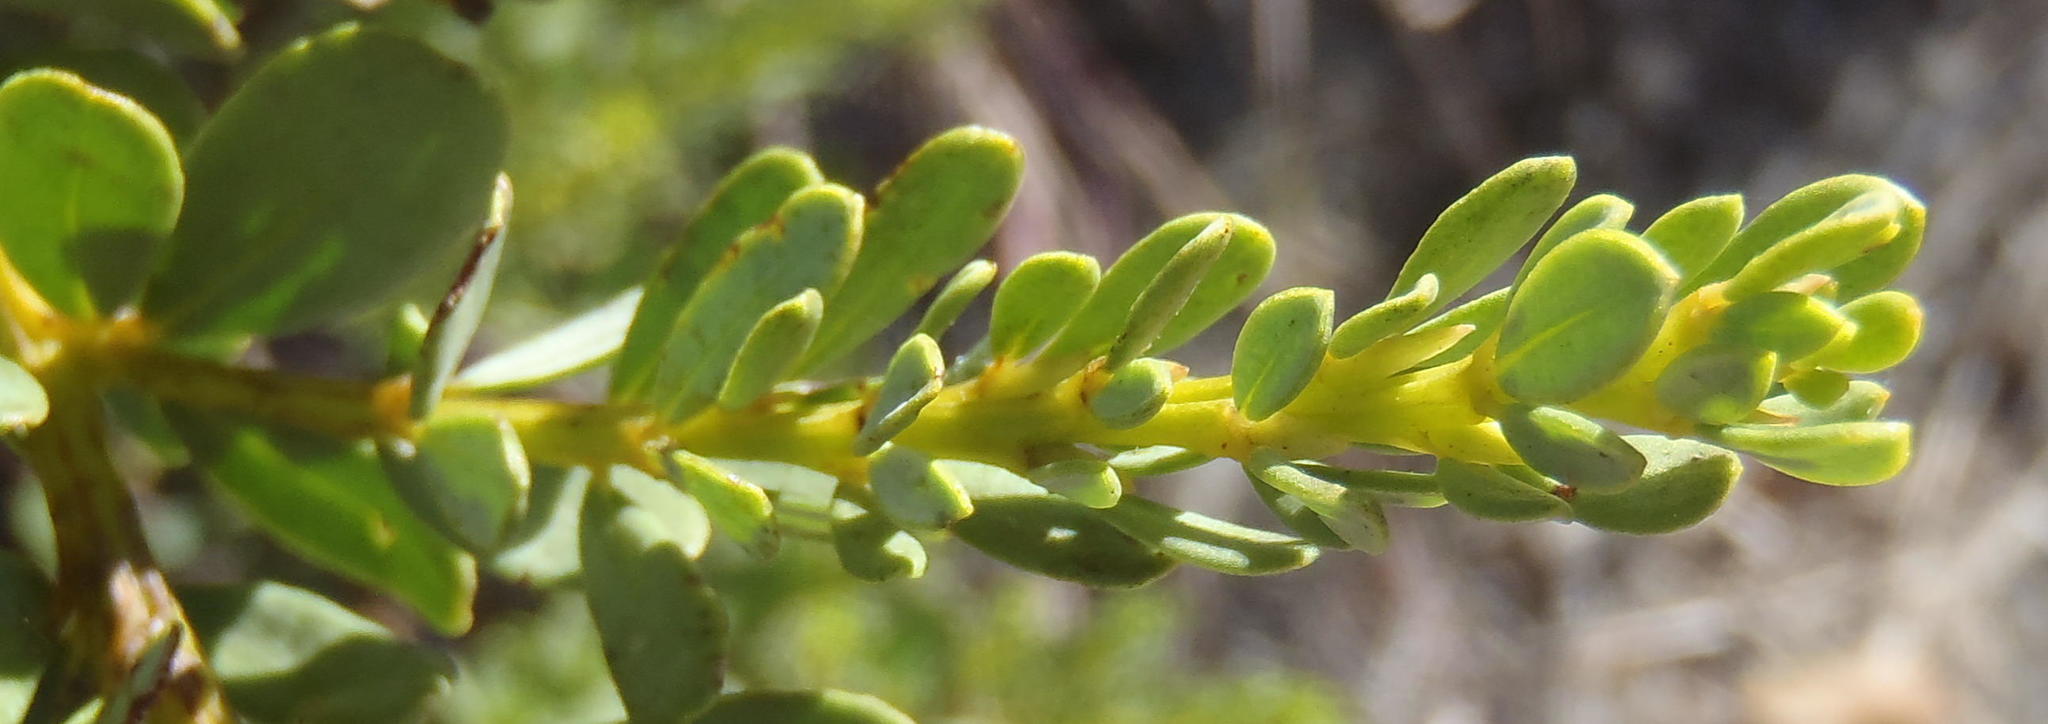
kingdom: Plantae
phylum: Tracheophyta
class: Magnoliopsida
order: Fabales
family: Fabaceae
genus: Cyclopia
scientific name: Cyclopia subternata
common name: Honeybush tea
